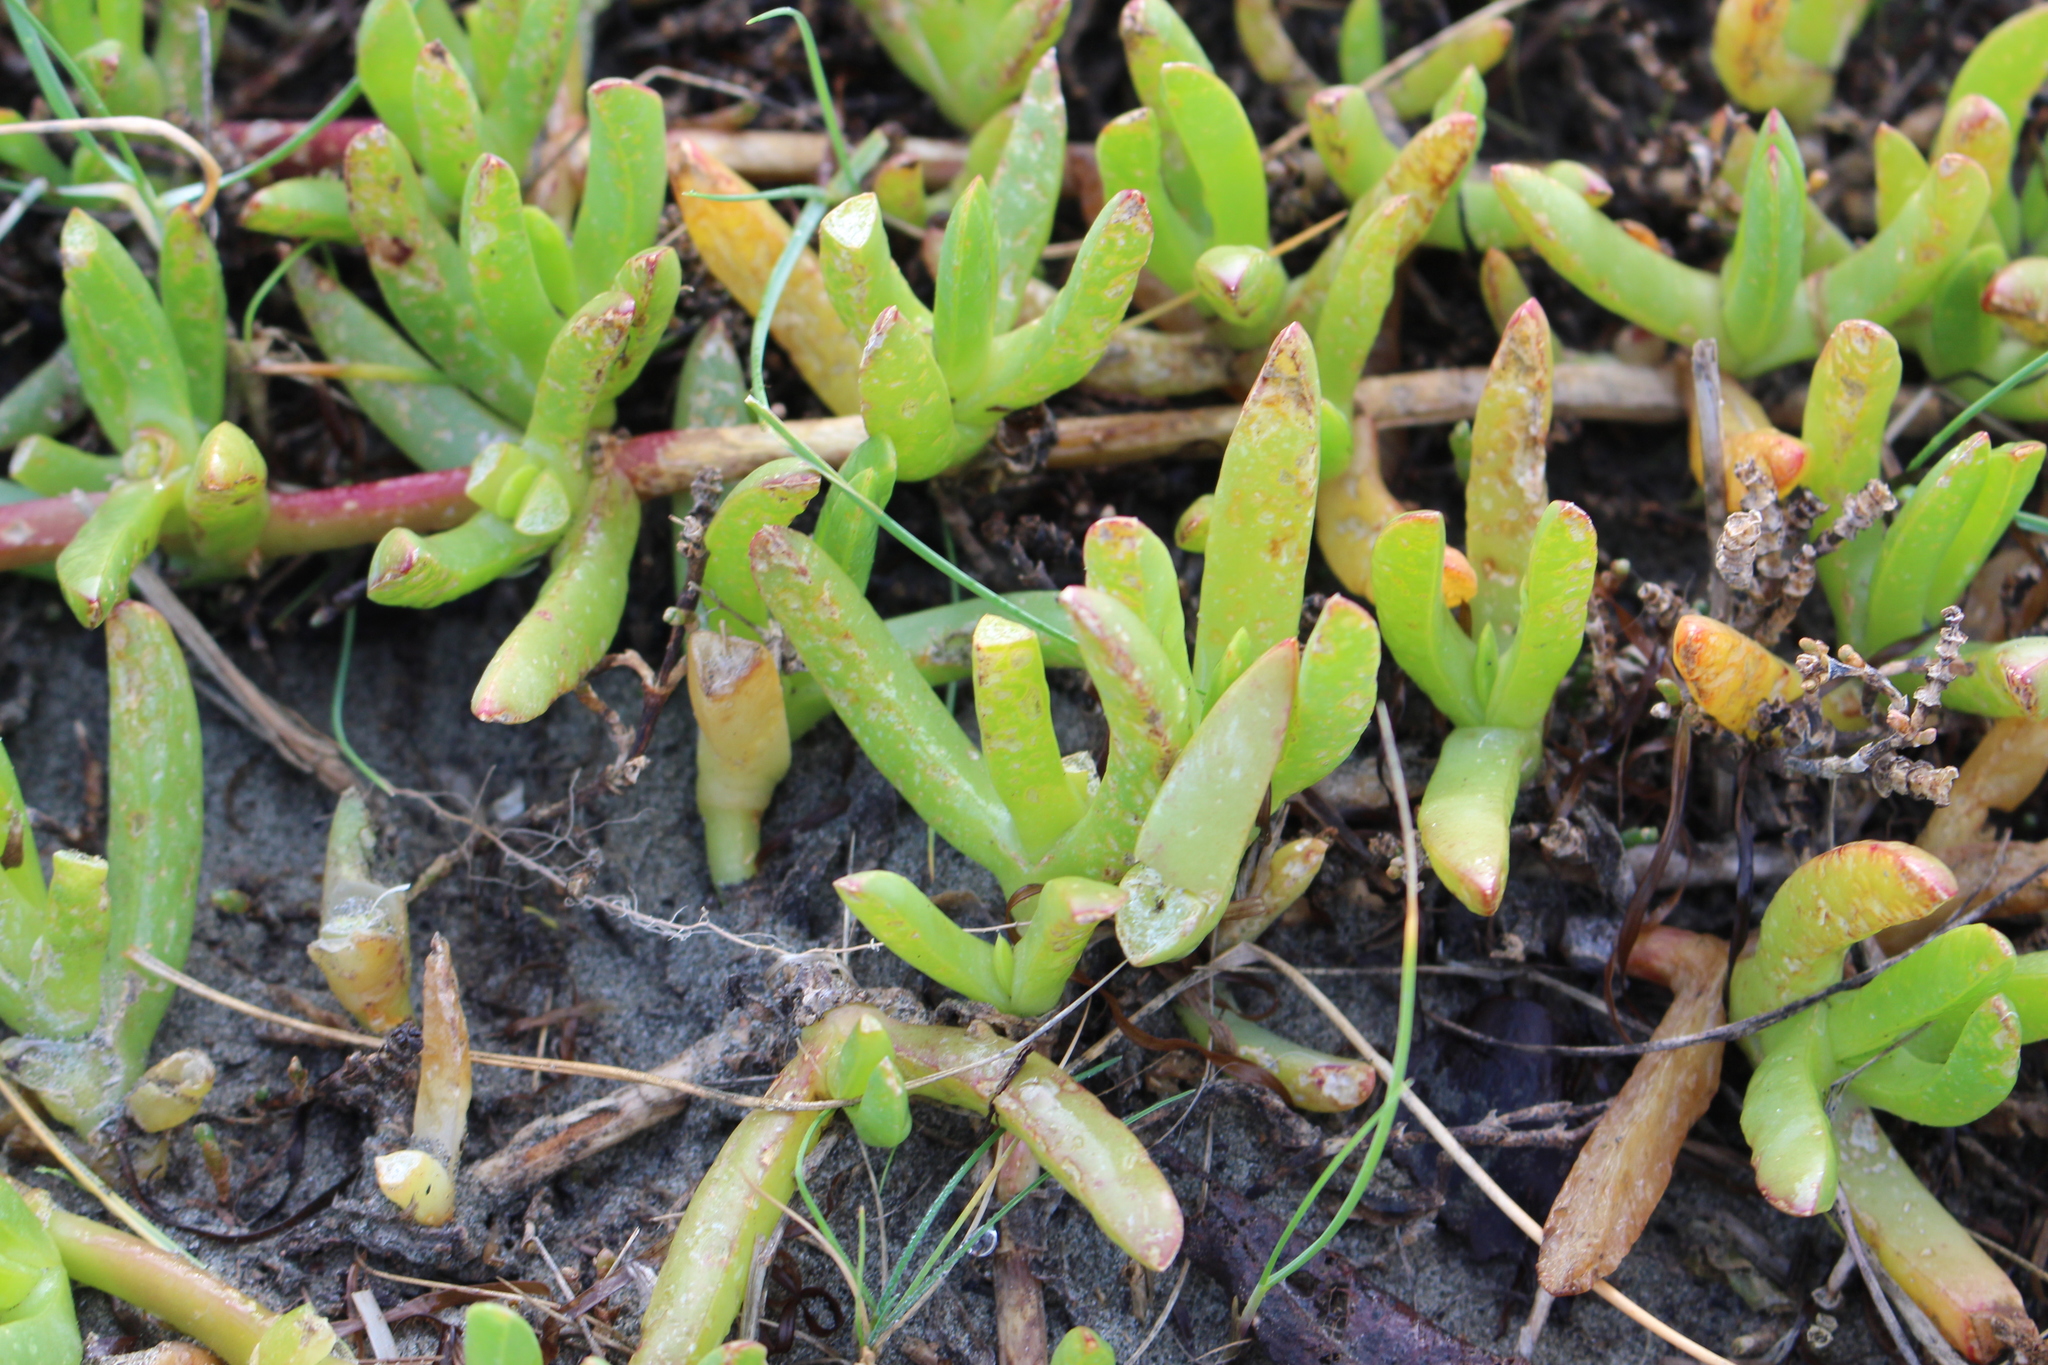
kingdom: Plantae
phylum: Tracheophyta
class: Magnoliopsida
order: Caryophyllales
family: Aizoaceae
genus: Disphyma
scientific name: Disphyma australe
